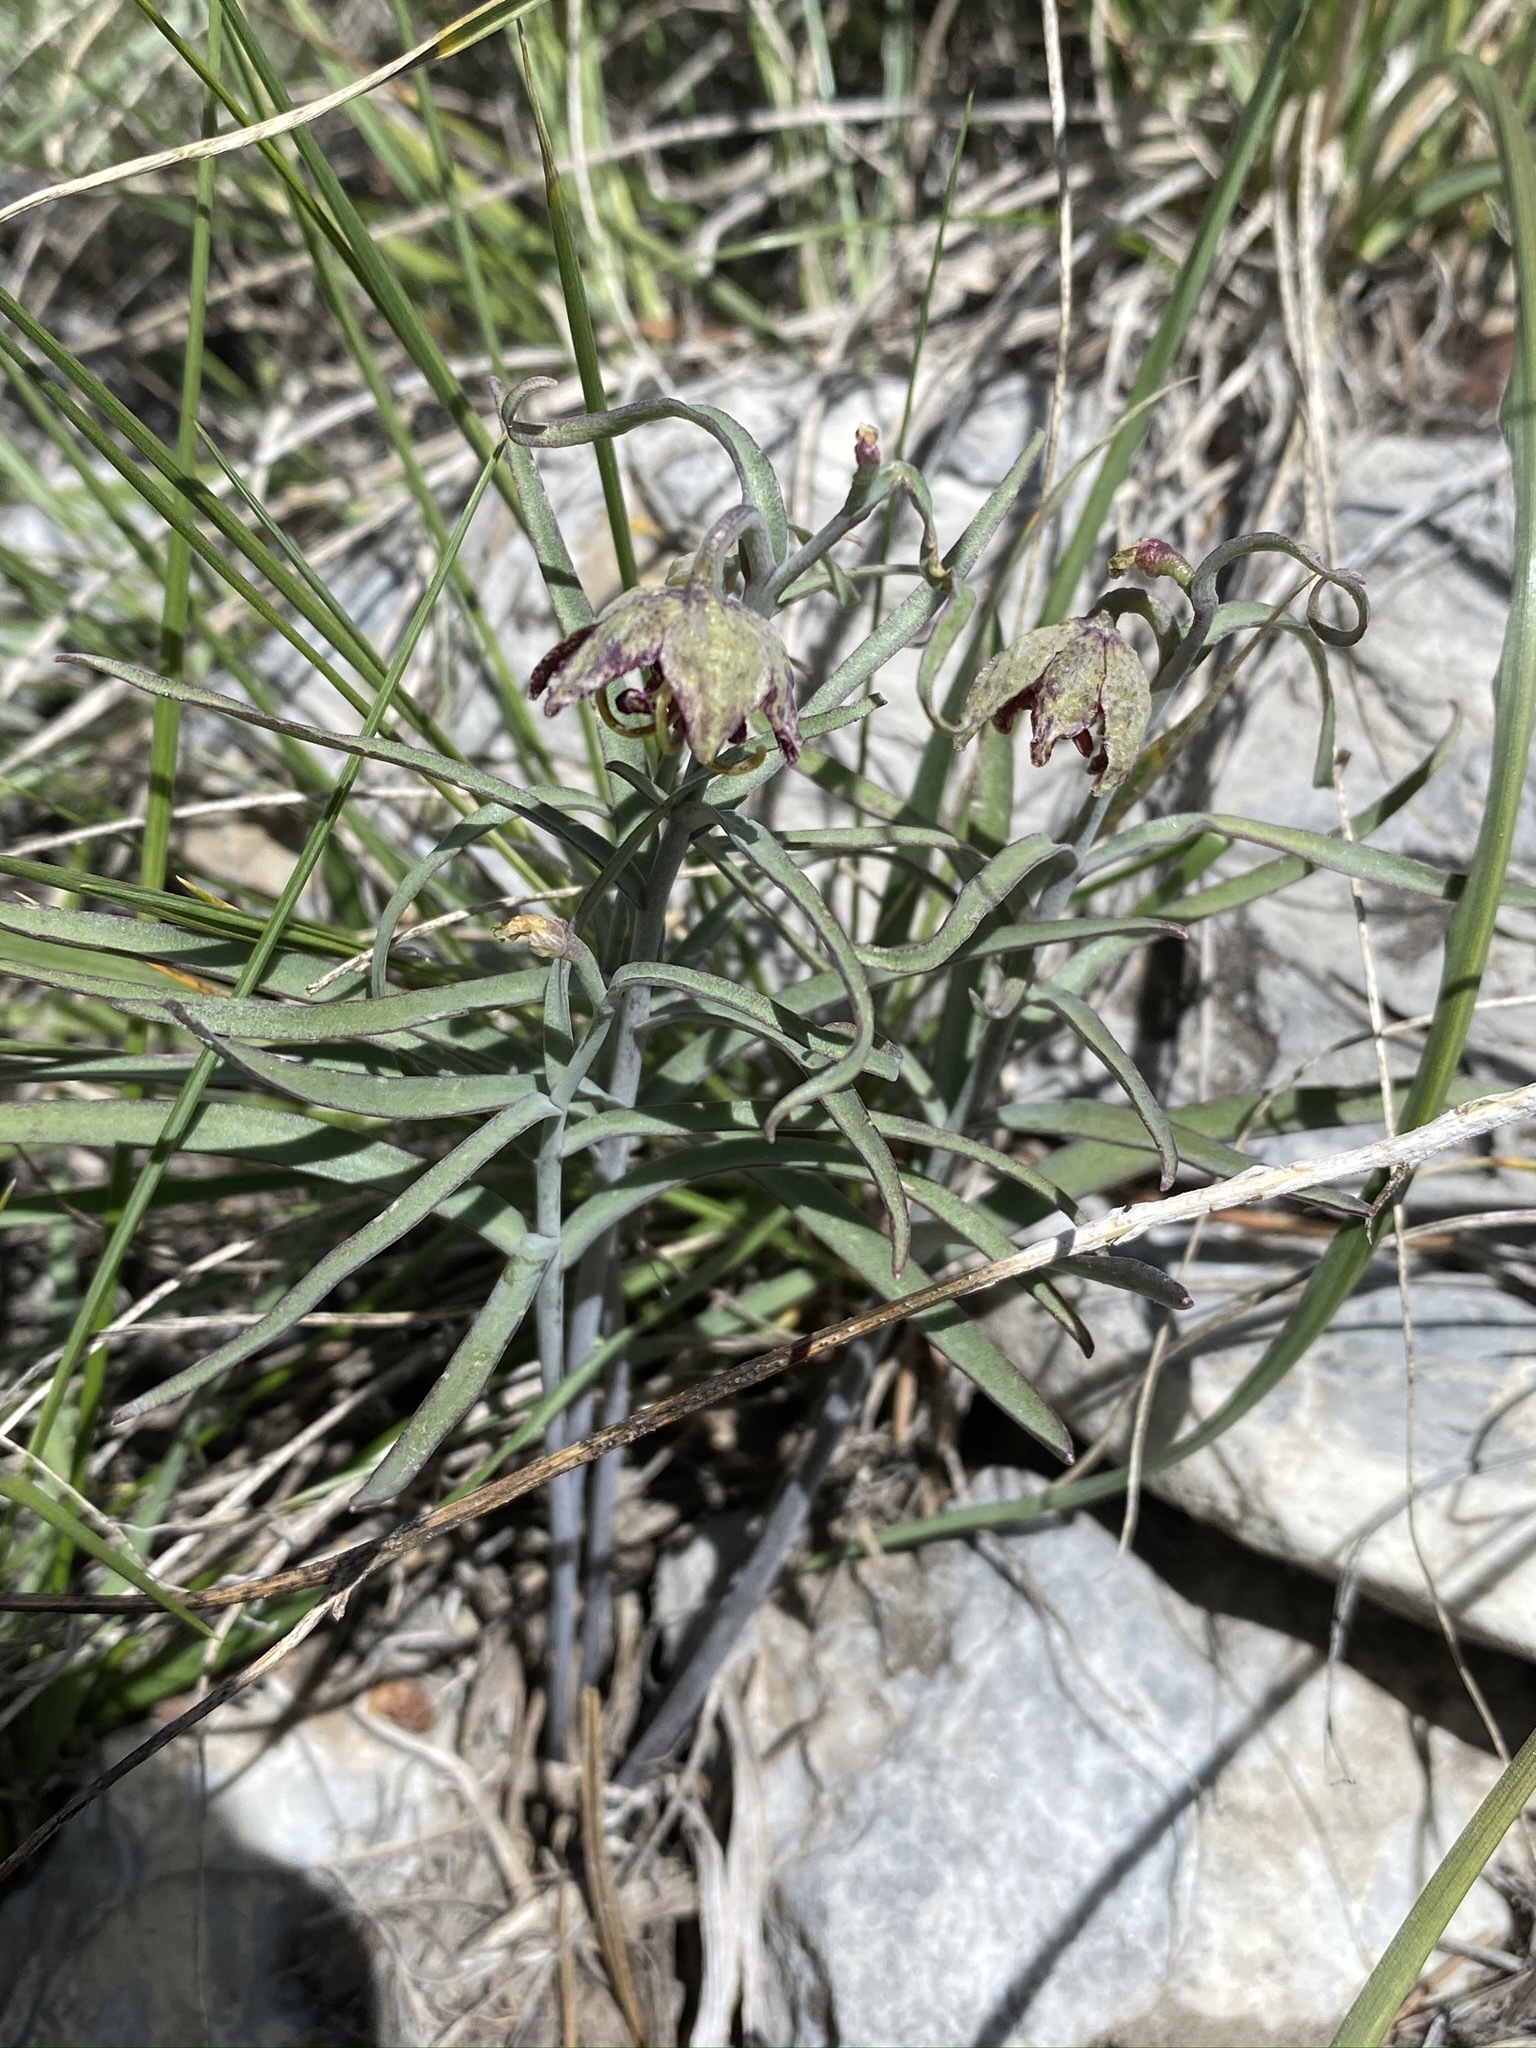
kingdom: Plantae
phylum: Tracheophyta
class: Liliopsida
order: Liliales
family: Liliaceae
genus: Fritillaria
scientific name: Fritillaria atropurpurea
